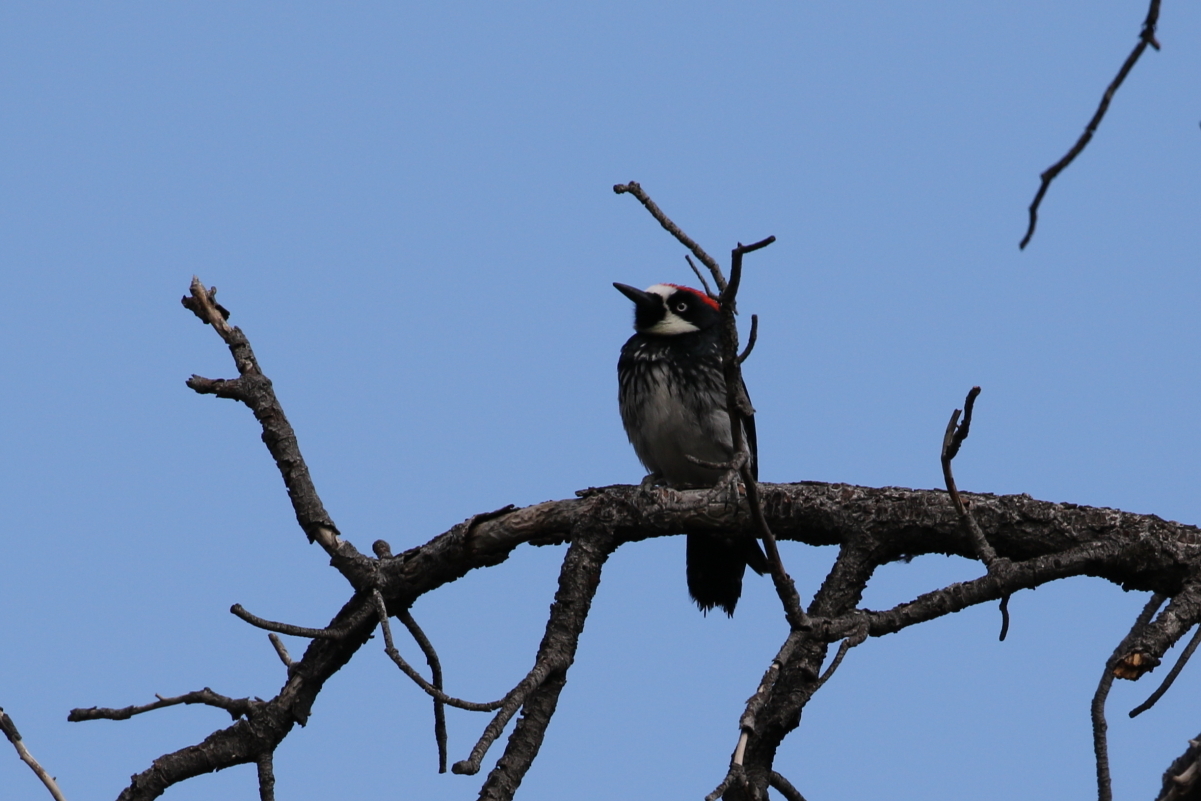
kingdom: Animalia
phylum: Chordata
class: Aves
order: Piciformes
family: Picidae
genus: Melanerpes
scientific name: Melanerpes formicivorus
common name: Acorn woodpecker
